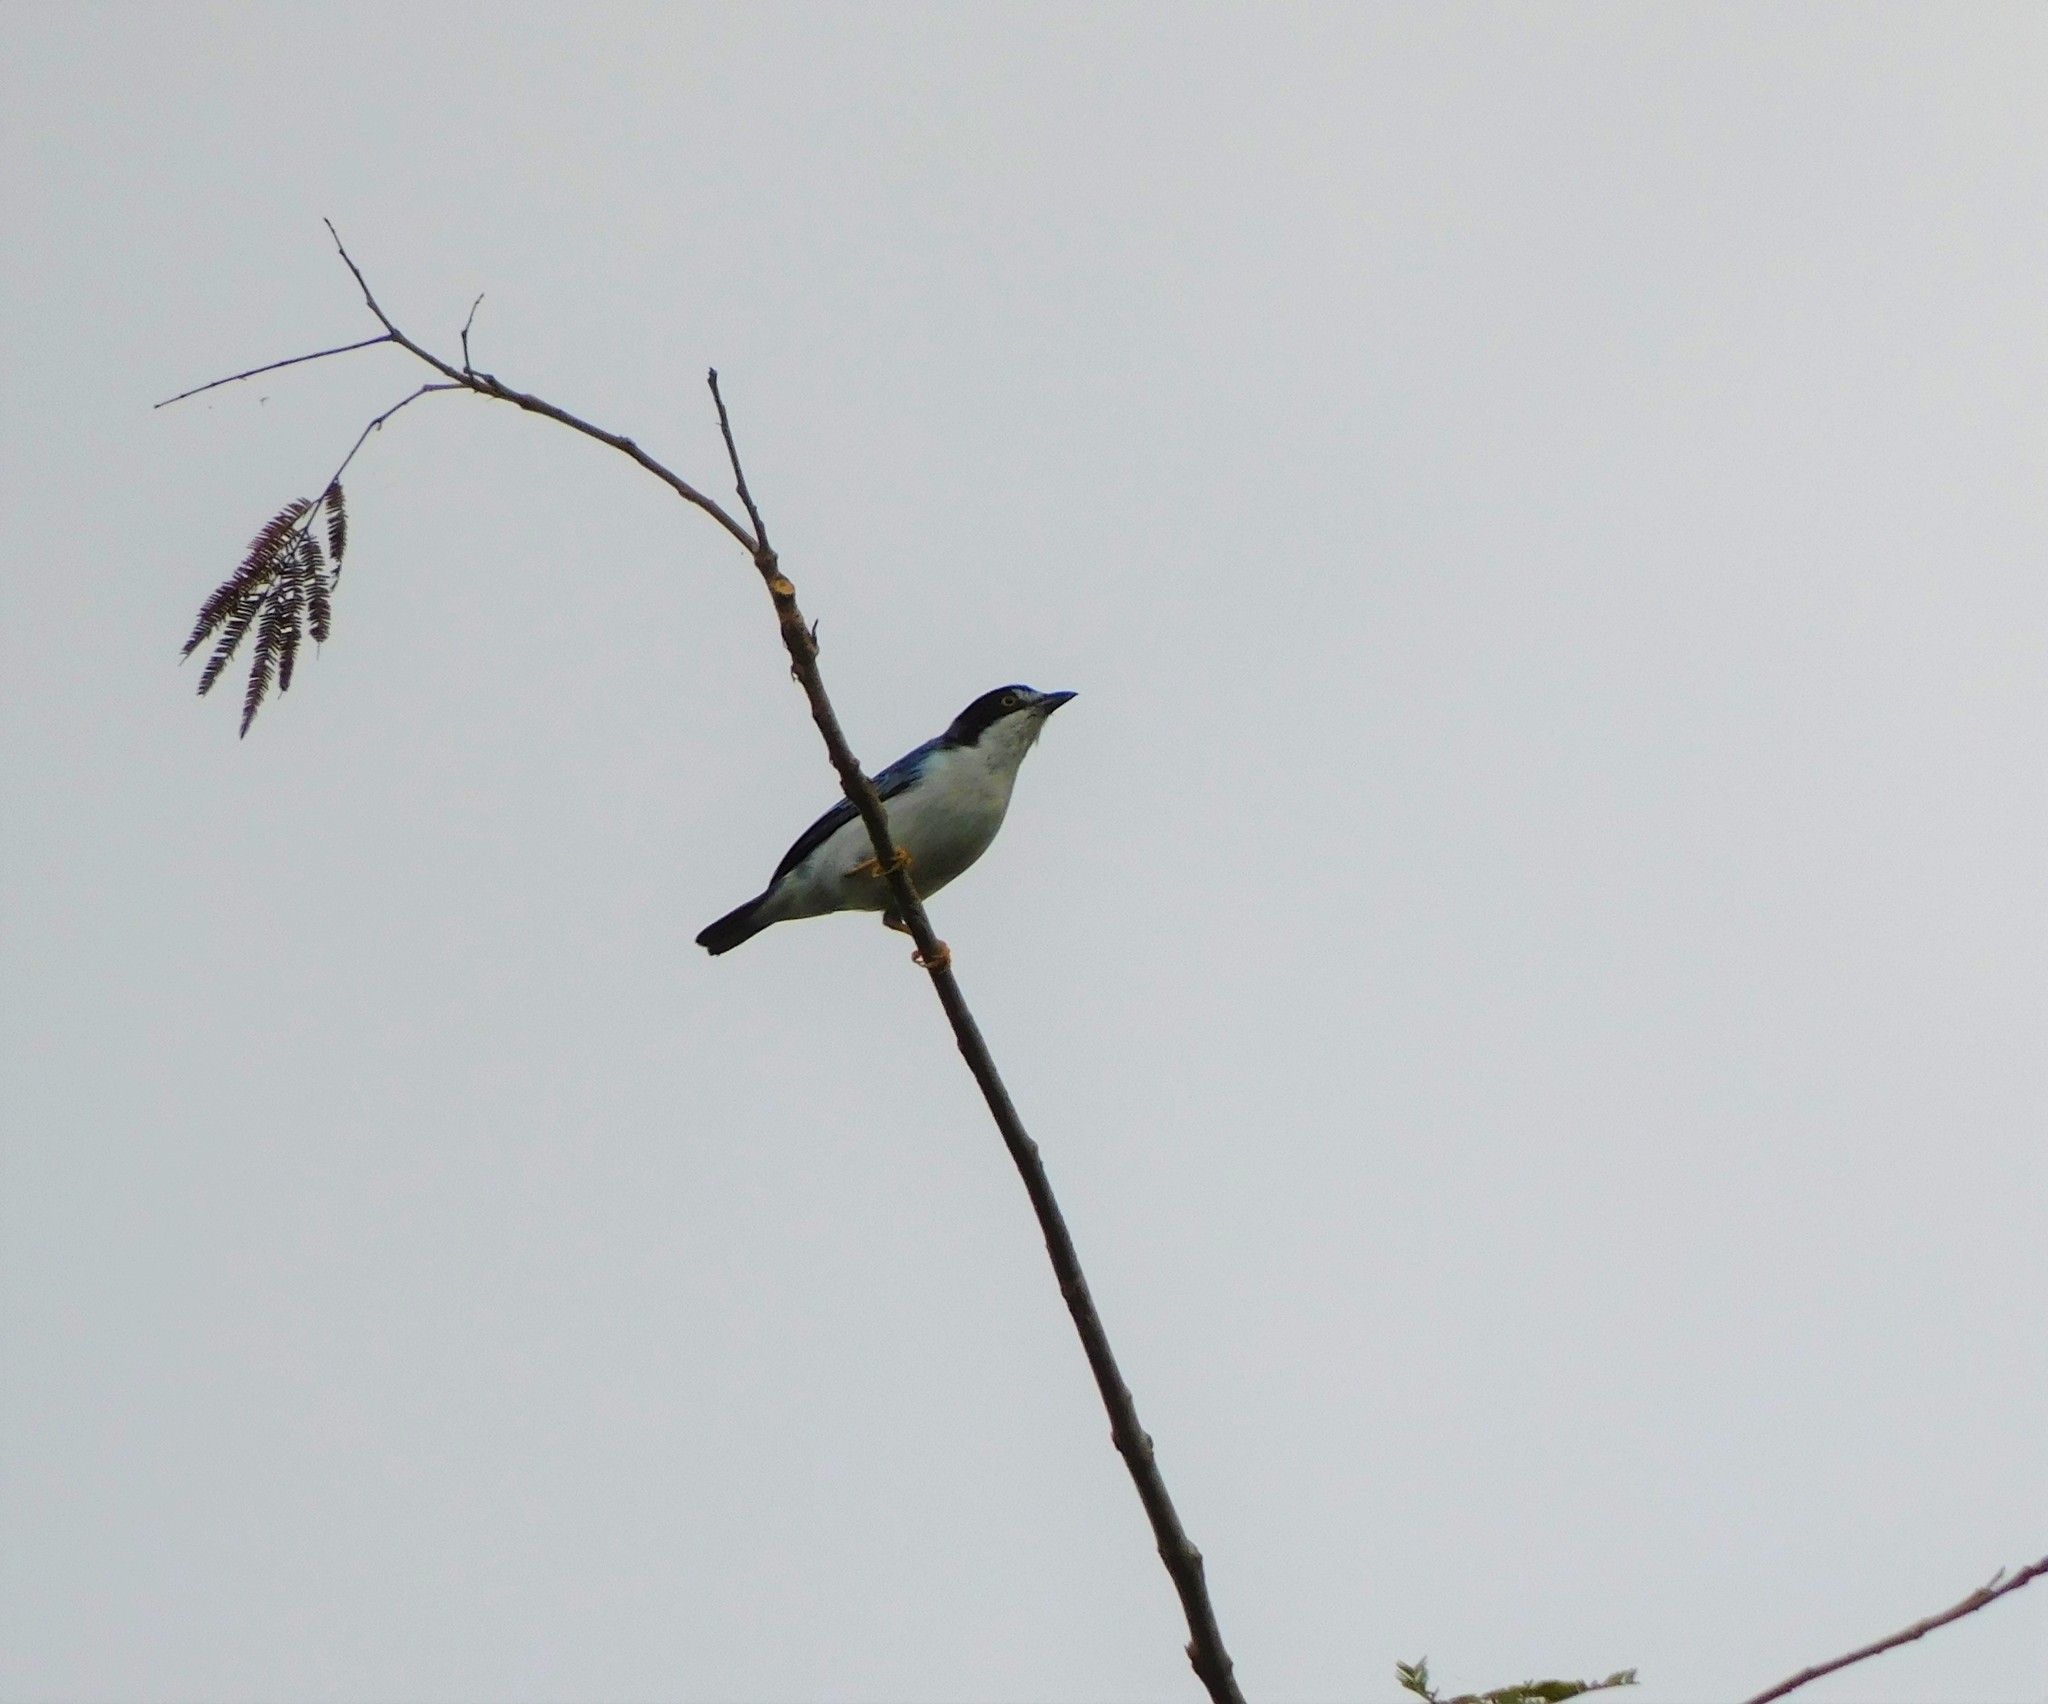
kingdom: Animalia
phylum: Chordata
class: Aves
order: Passeriformes
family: Thraupidae
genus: Nemosia
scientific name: Nemosia pileata
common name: Hooded tanager
